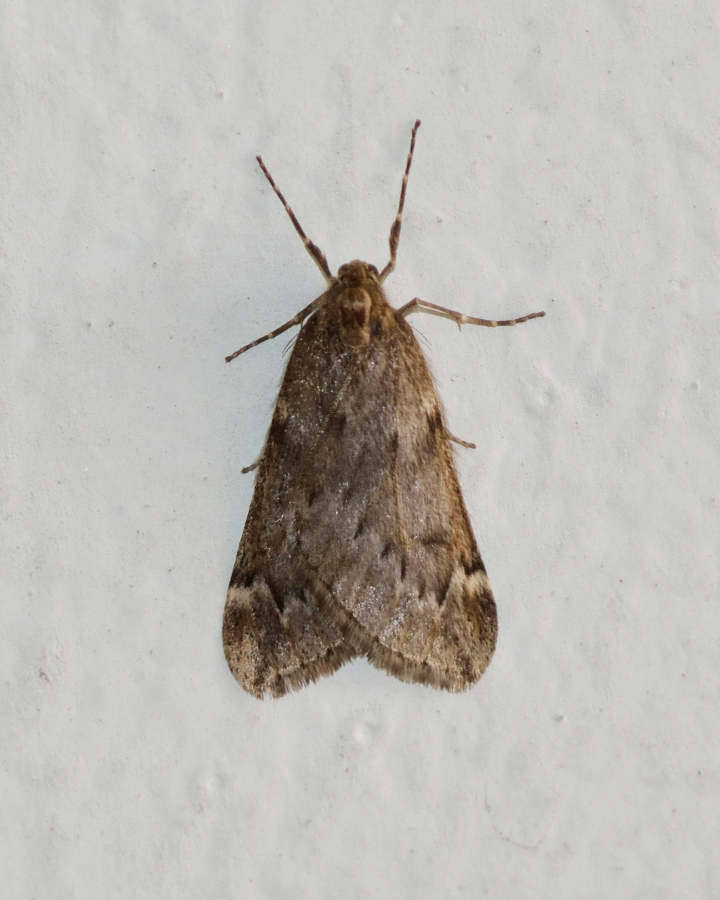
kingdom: Animalia
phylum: Arthropoda
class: Insecta
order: Lepidoptera
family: Geometridae
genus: Alsophila
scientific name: Alsophila aescularia
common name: March moth
